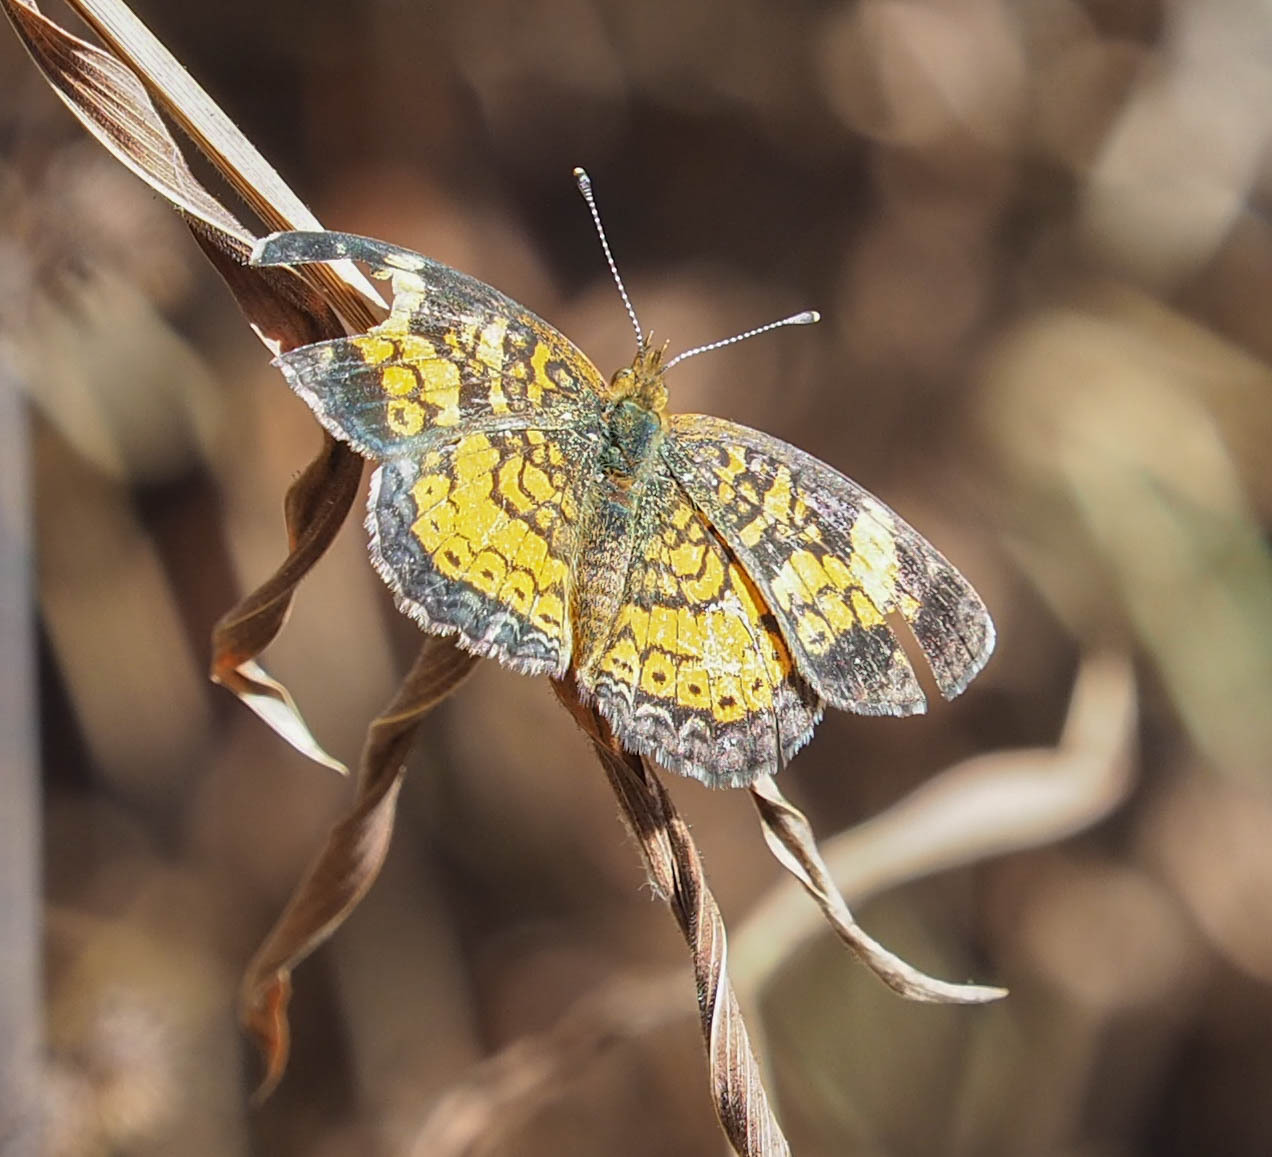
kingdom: Animalia
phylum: Arthropoda
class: Insecta
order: Lepidoptera
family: Nymphalidae
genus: Phyciodes
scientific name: Phyciodes tharos
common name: Pearl crescent
